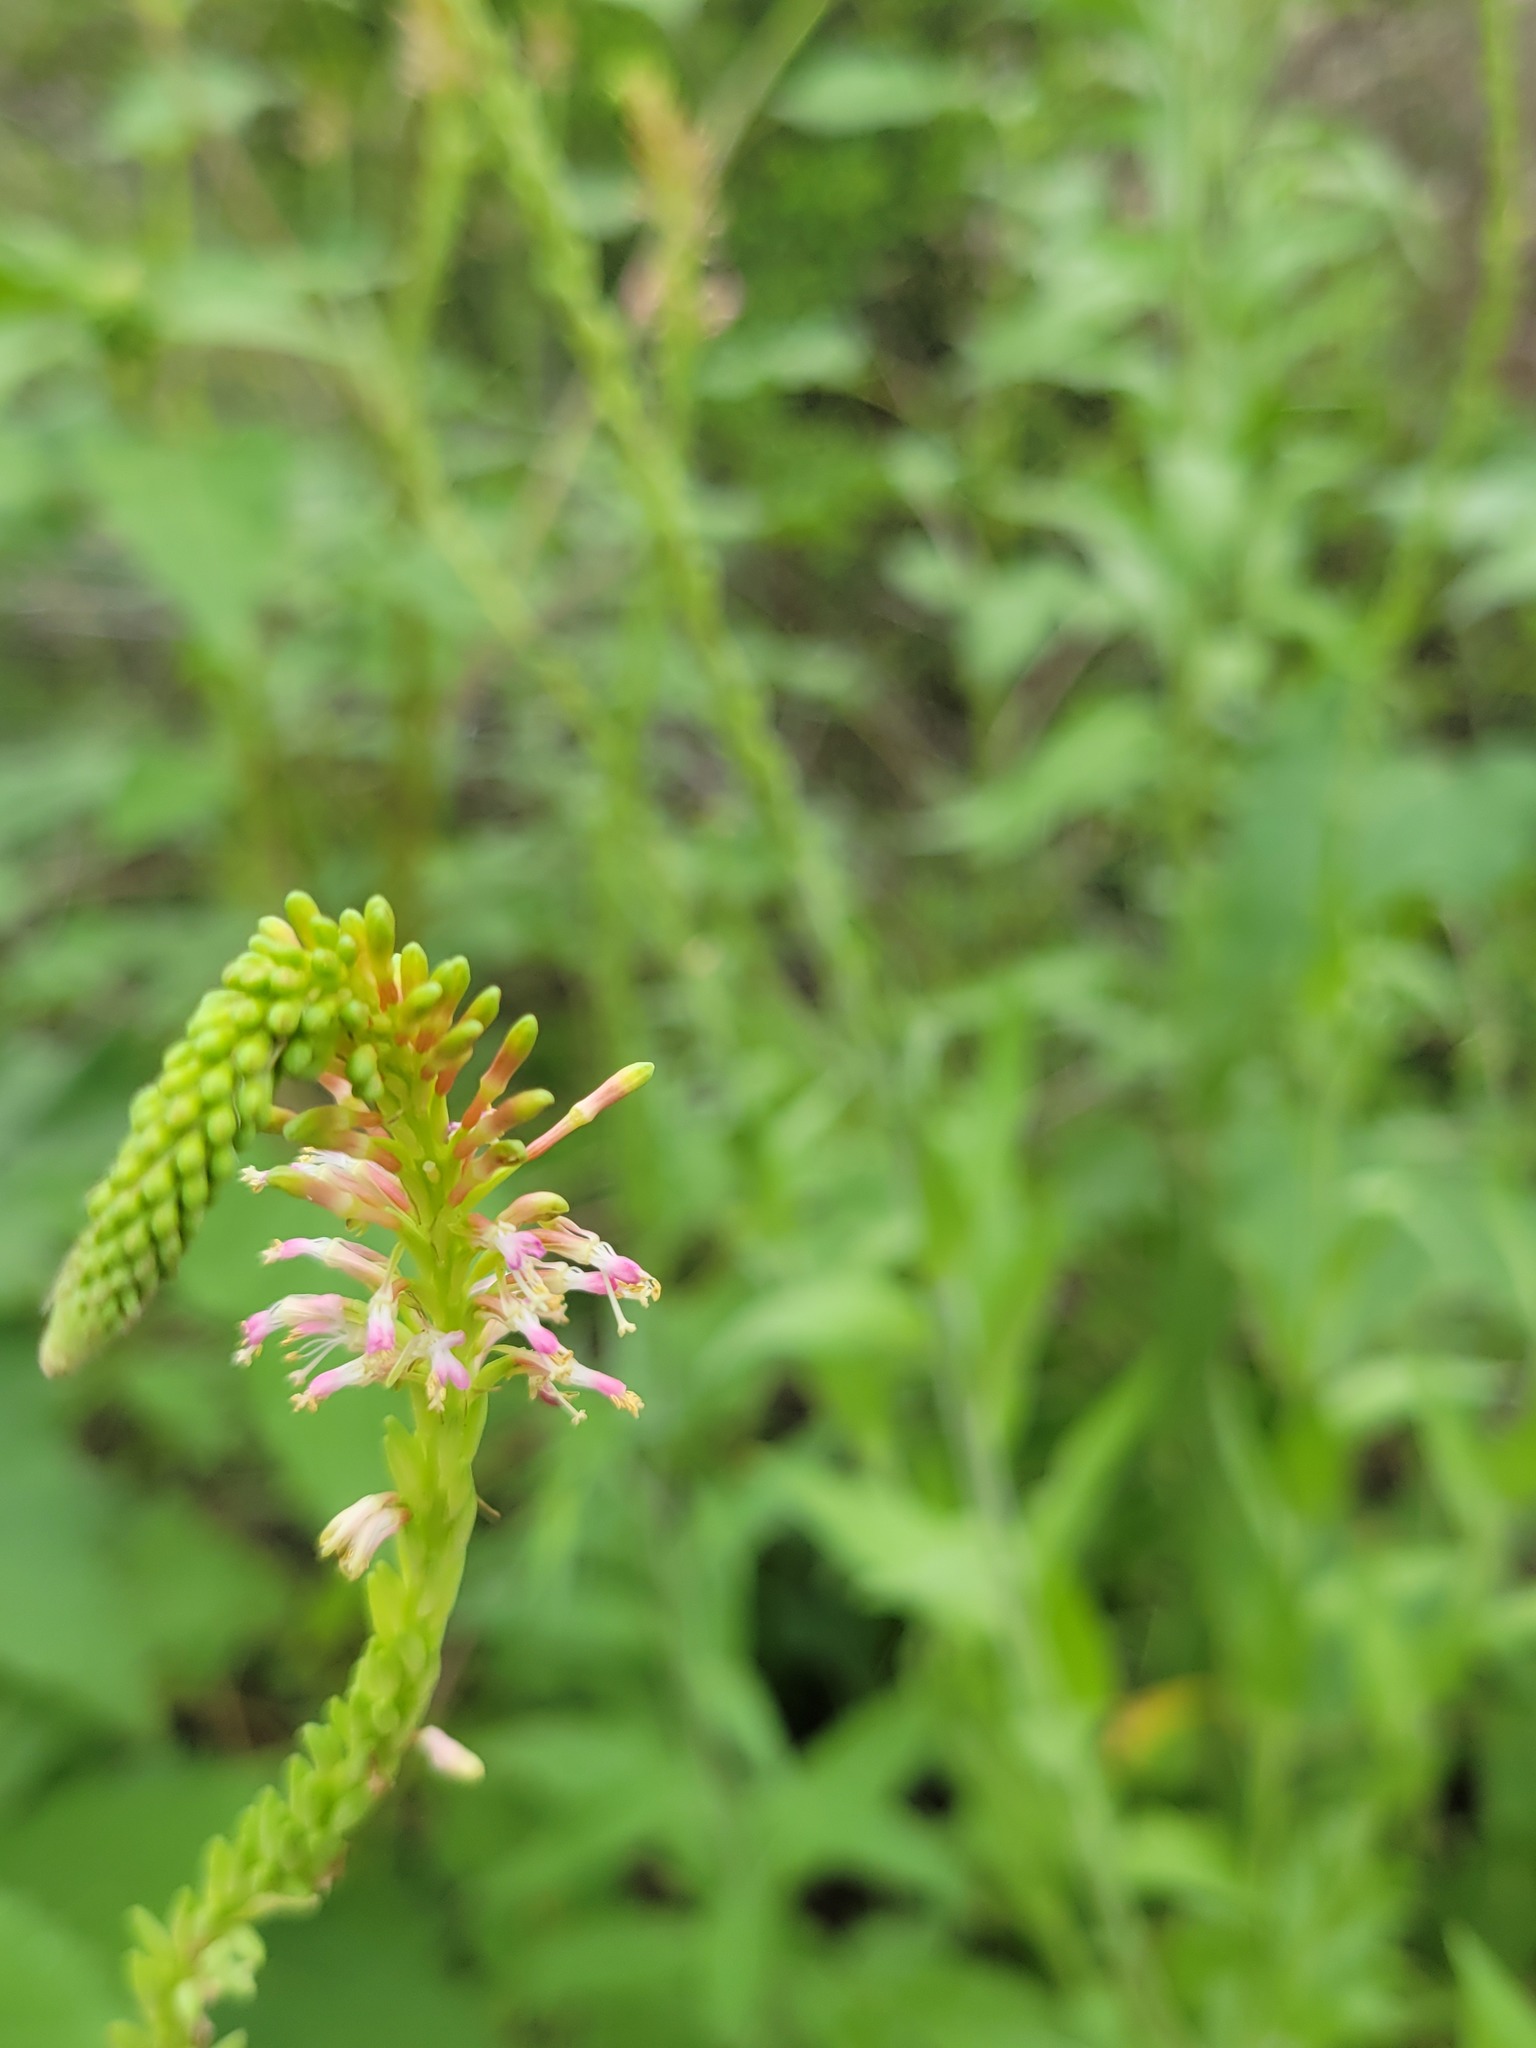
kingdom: Plantae
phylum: Tracheophyta
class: Magnoliopsida
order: Myrtales
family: Onagraceae
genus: Oenothera
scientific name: Oenothera curtiflora
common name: Velvetweed
